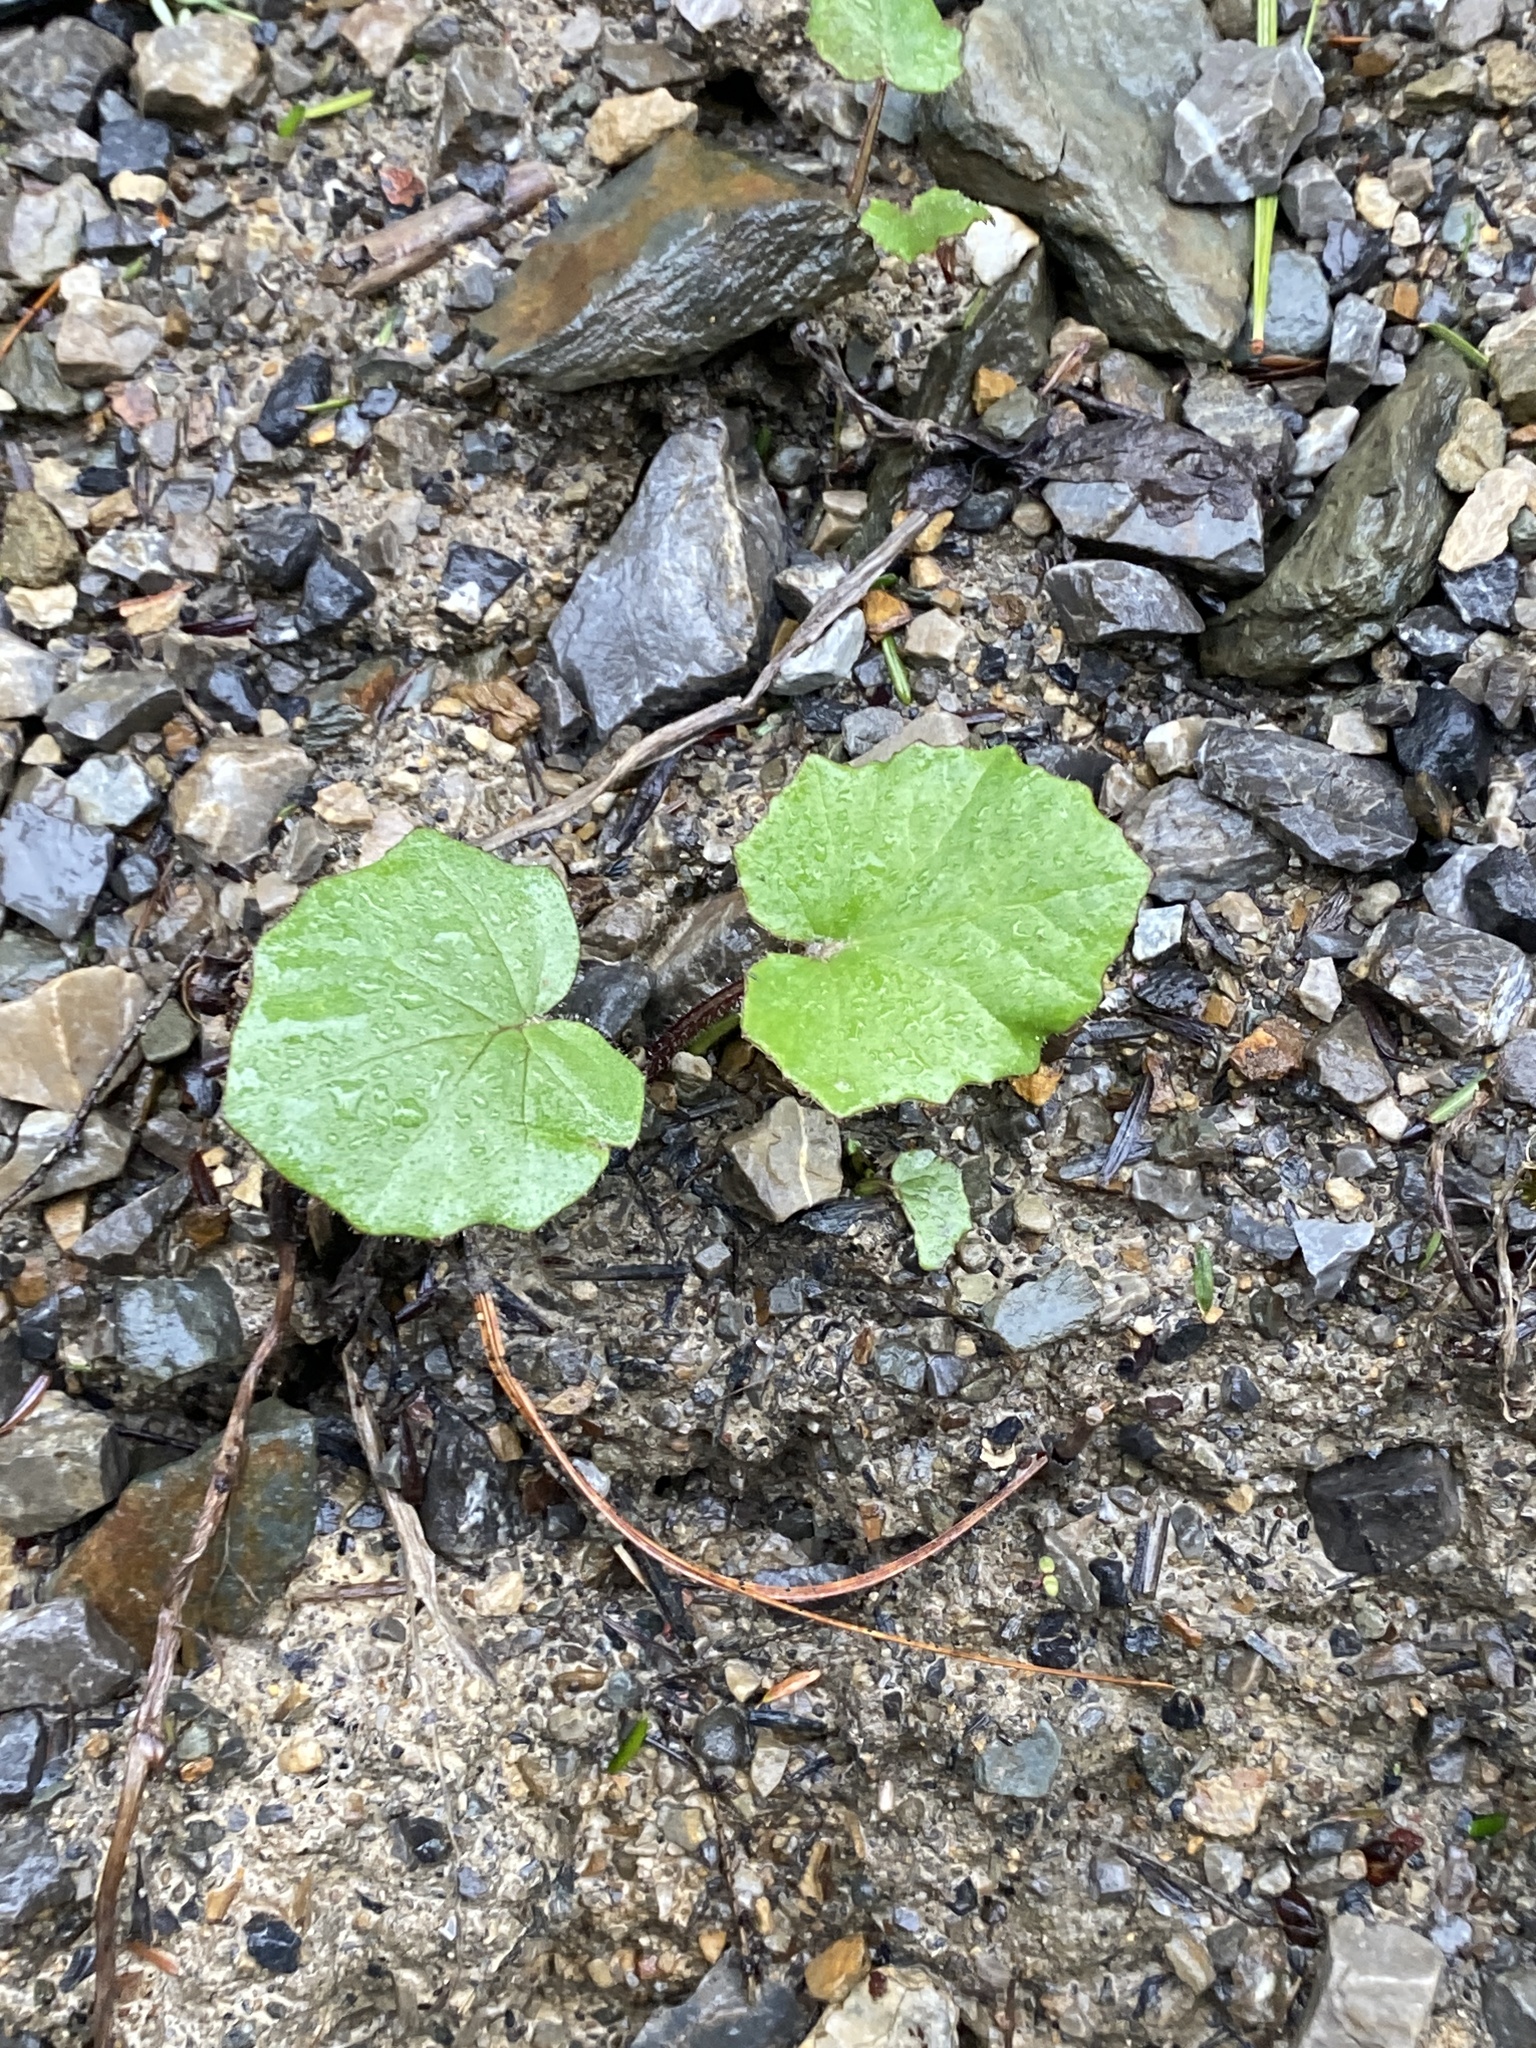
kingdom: Plantae
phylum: Tracheophyta
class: Magnoliopsida
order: Asterales
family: Asteraceae
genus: Tussilago
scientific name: Tussilago farfara
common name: Coltsfoot
